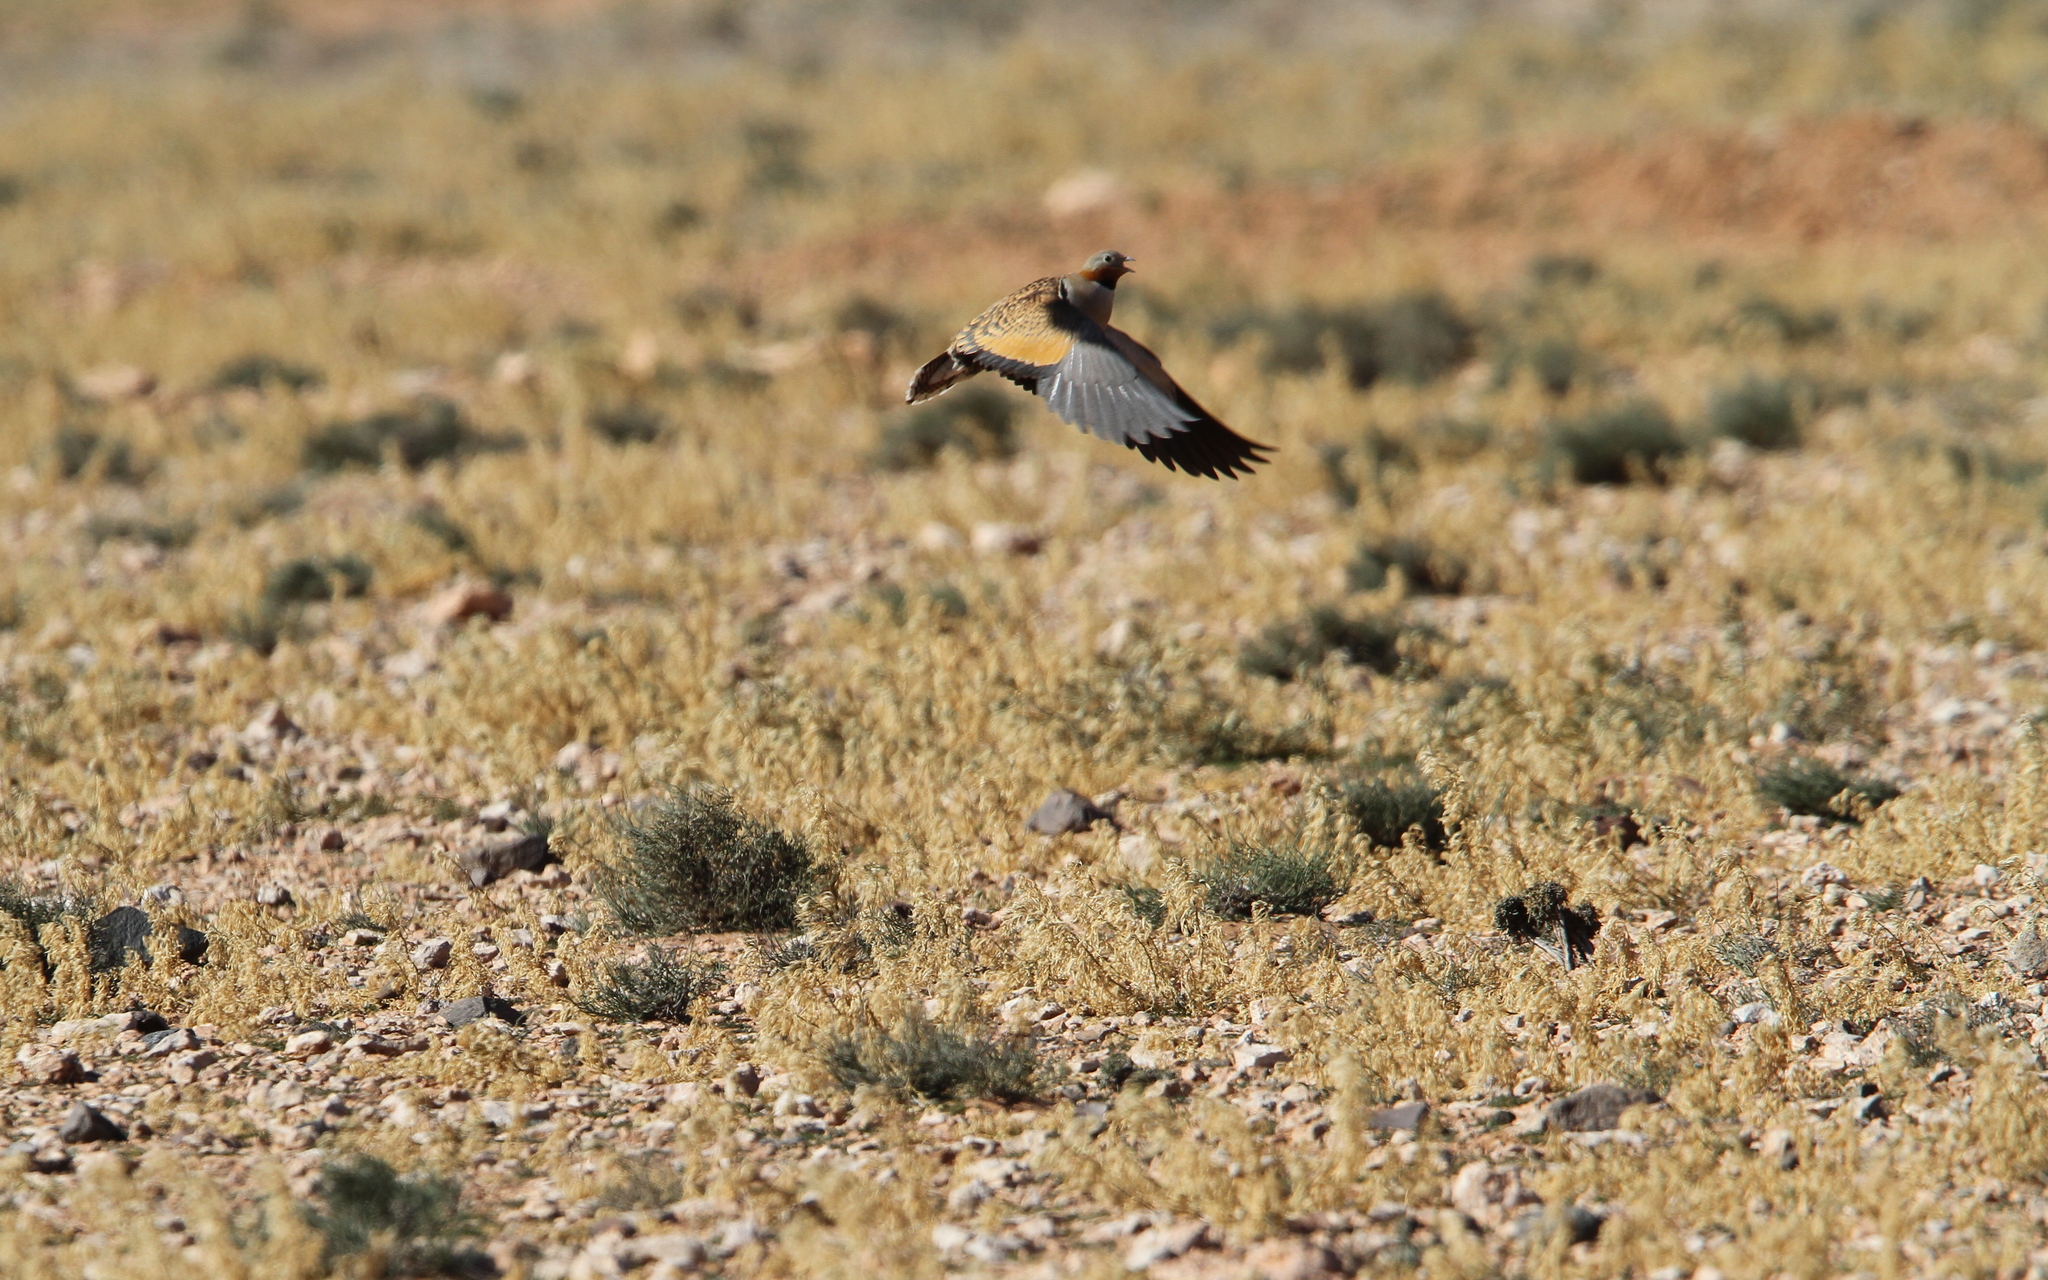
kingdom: Animalia
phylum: Chordata
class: Aves
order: Pteroclidiformes
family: Pteroclididae
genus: Pterocles
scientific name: Pterocles orientalis
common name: Black-bellied sandgrouse
